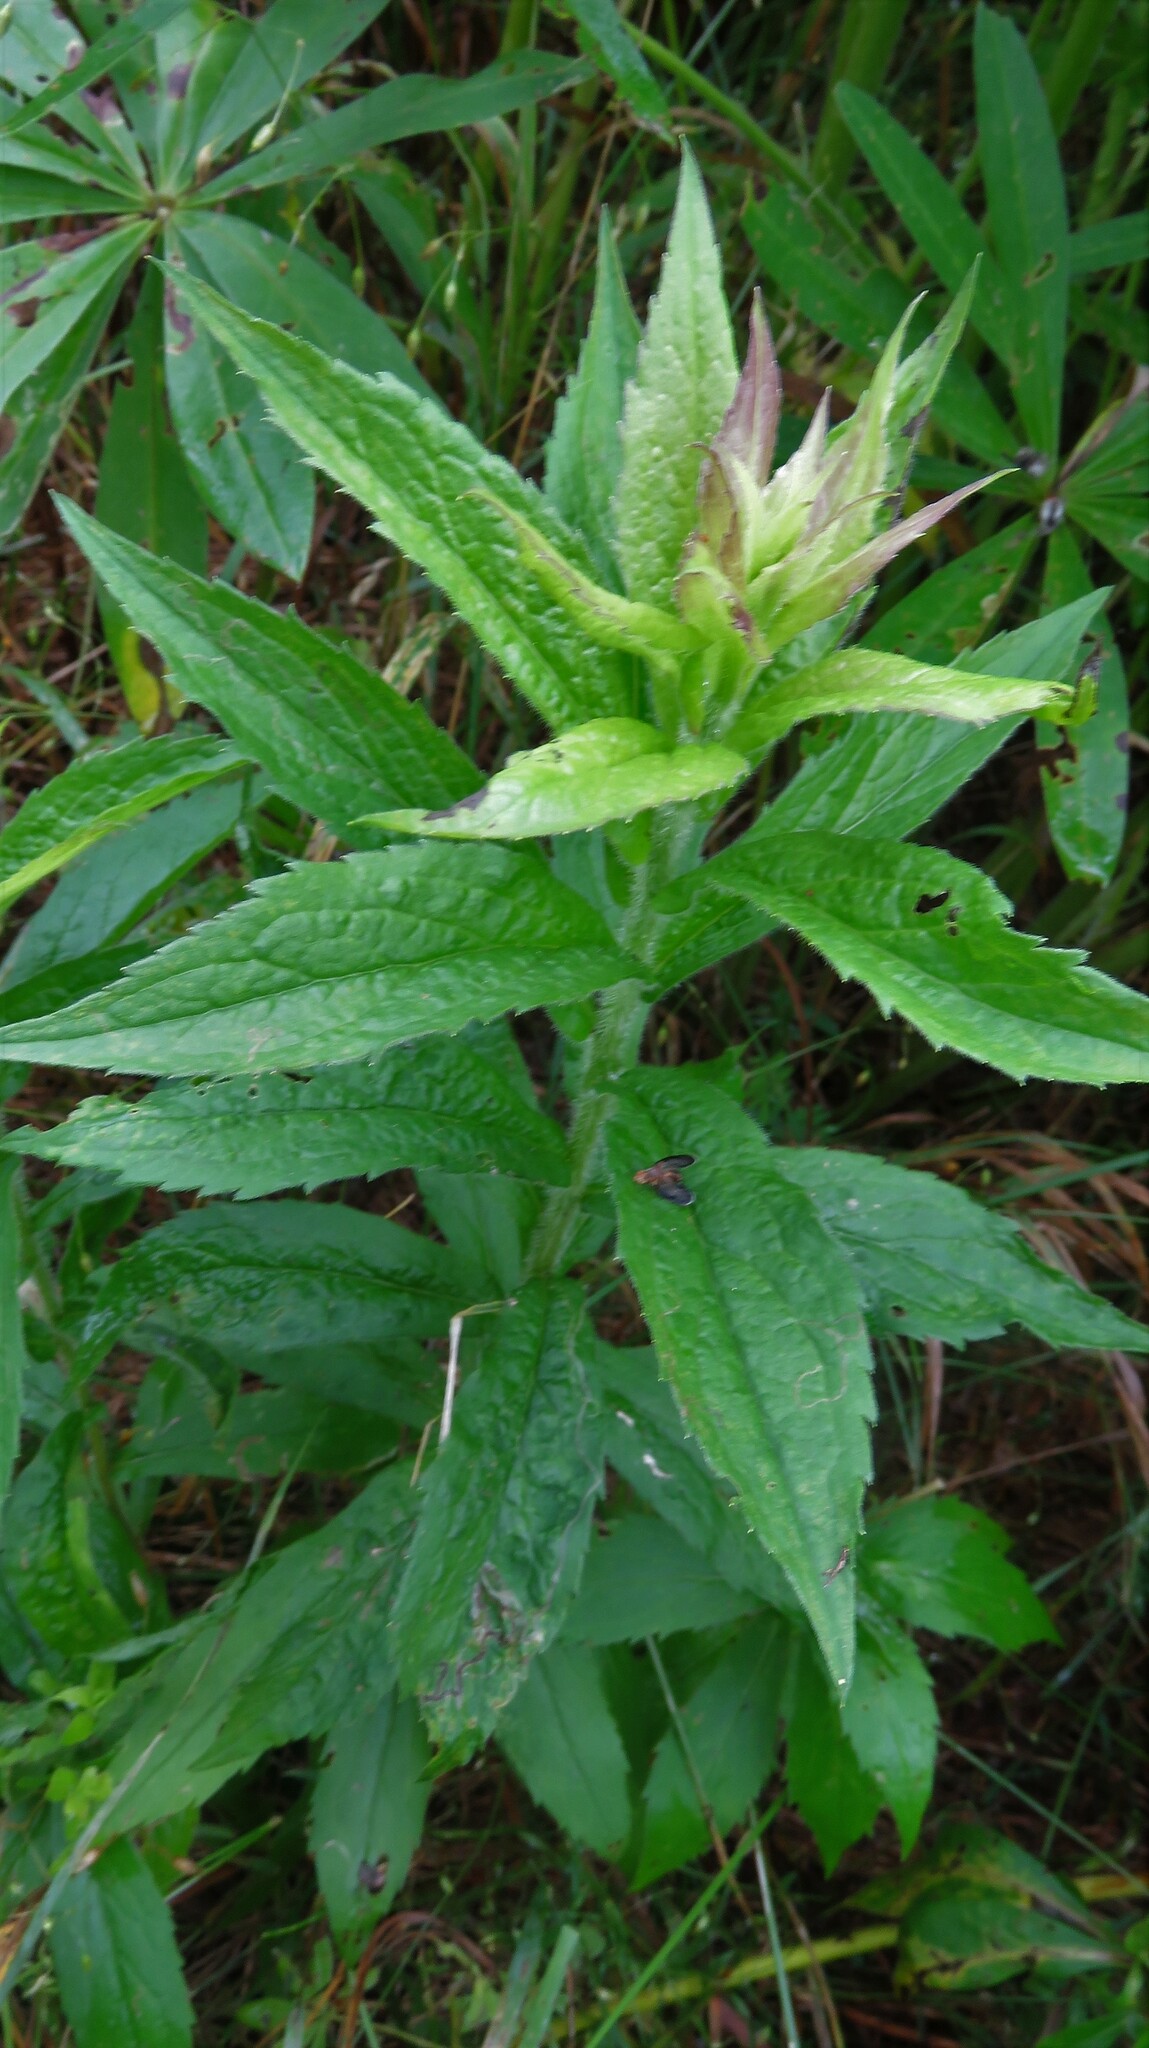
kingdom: Plantae
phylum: Tracheophyta
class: Magnoliopsida
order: Asterales
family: Asteraceae
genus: Solidago
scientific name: Solidago rugosa
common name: Rough-stemmed goldenrod
